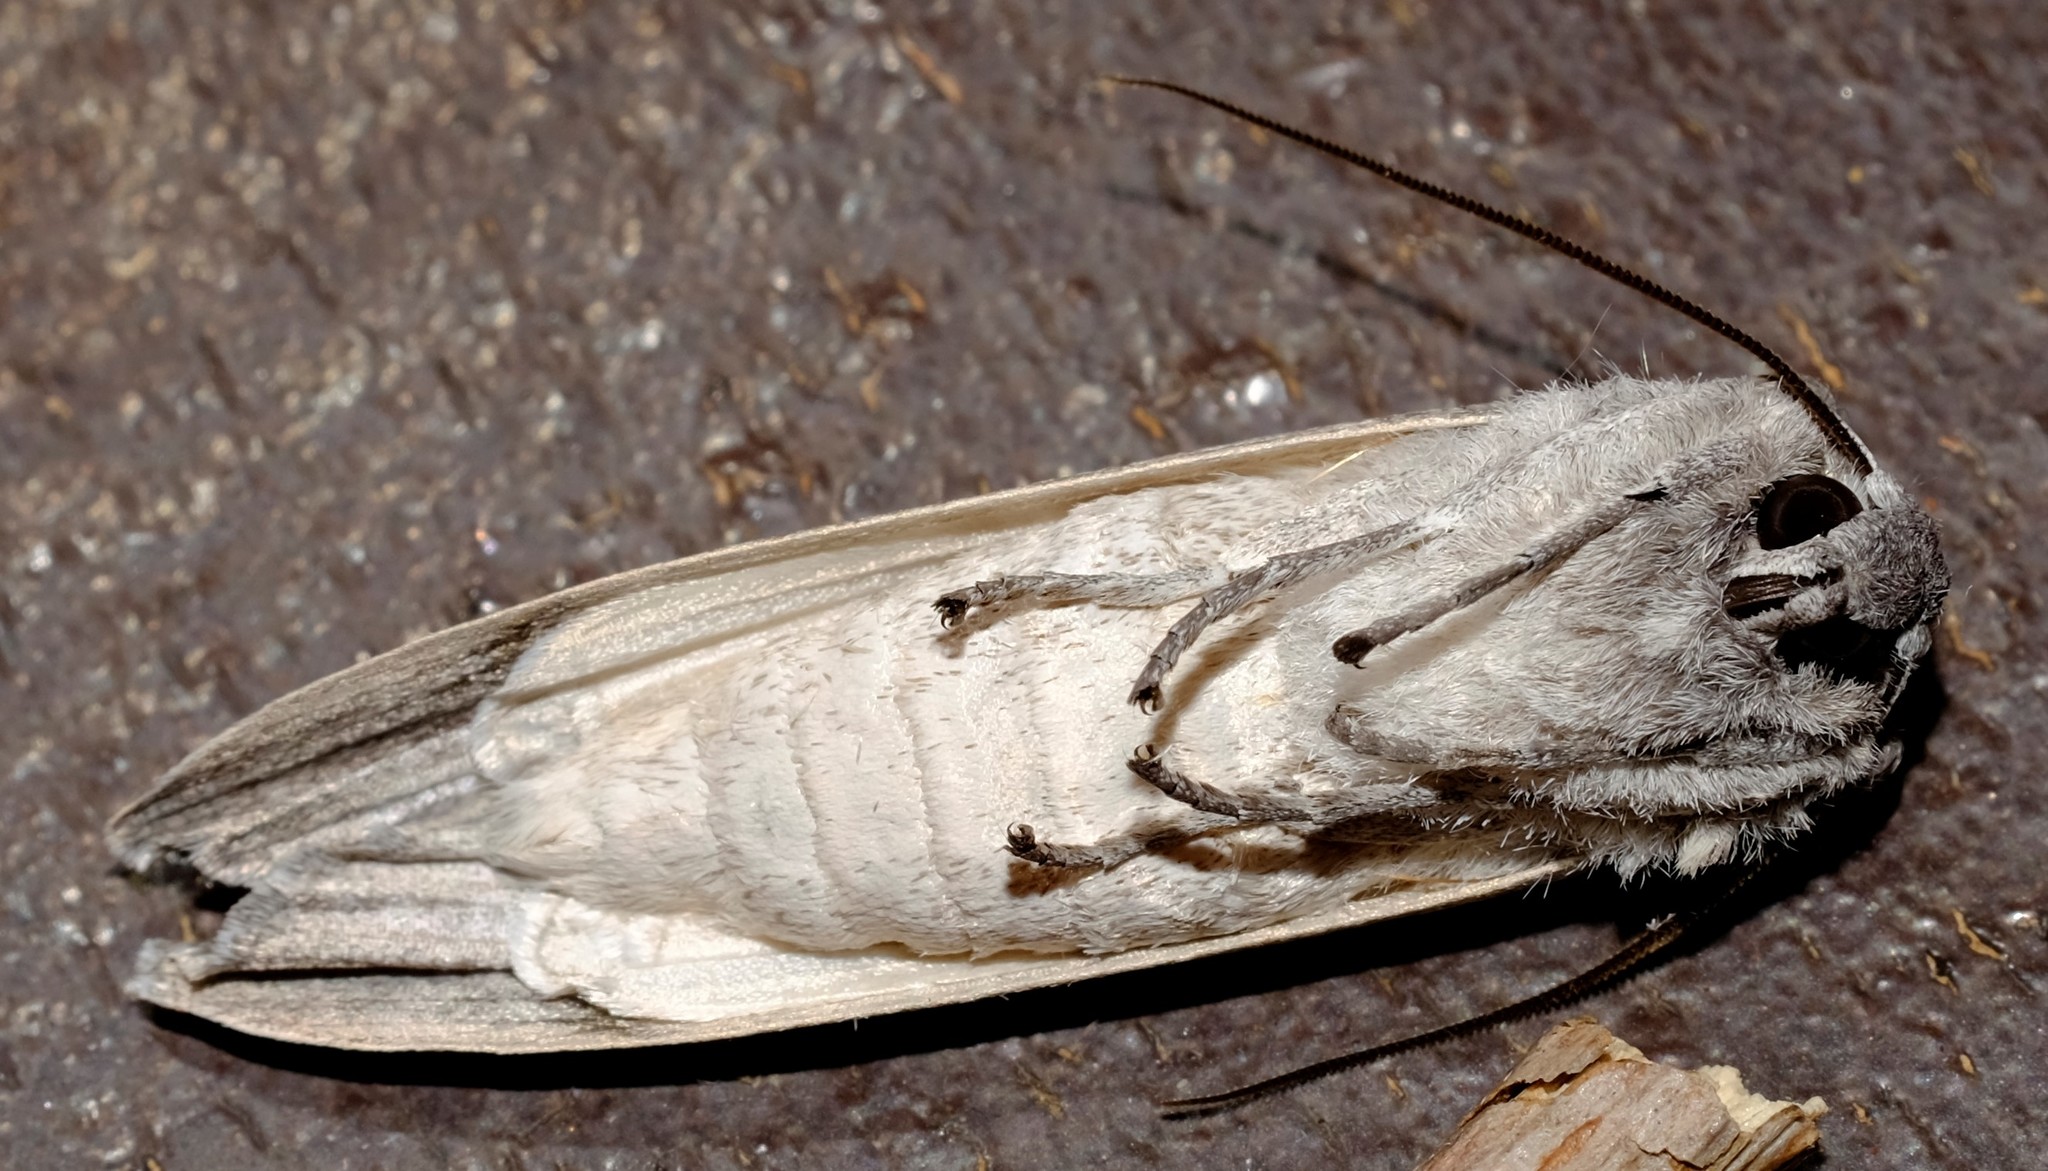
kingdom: Animalia
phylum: Arthropoda
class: Insecta
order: Lepidoptera
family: Geometridae
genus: Capusa
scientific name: Capusa cuculloides
